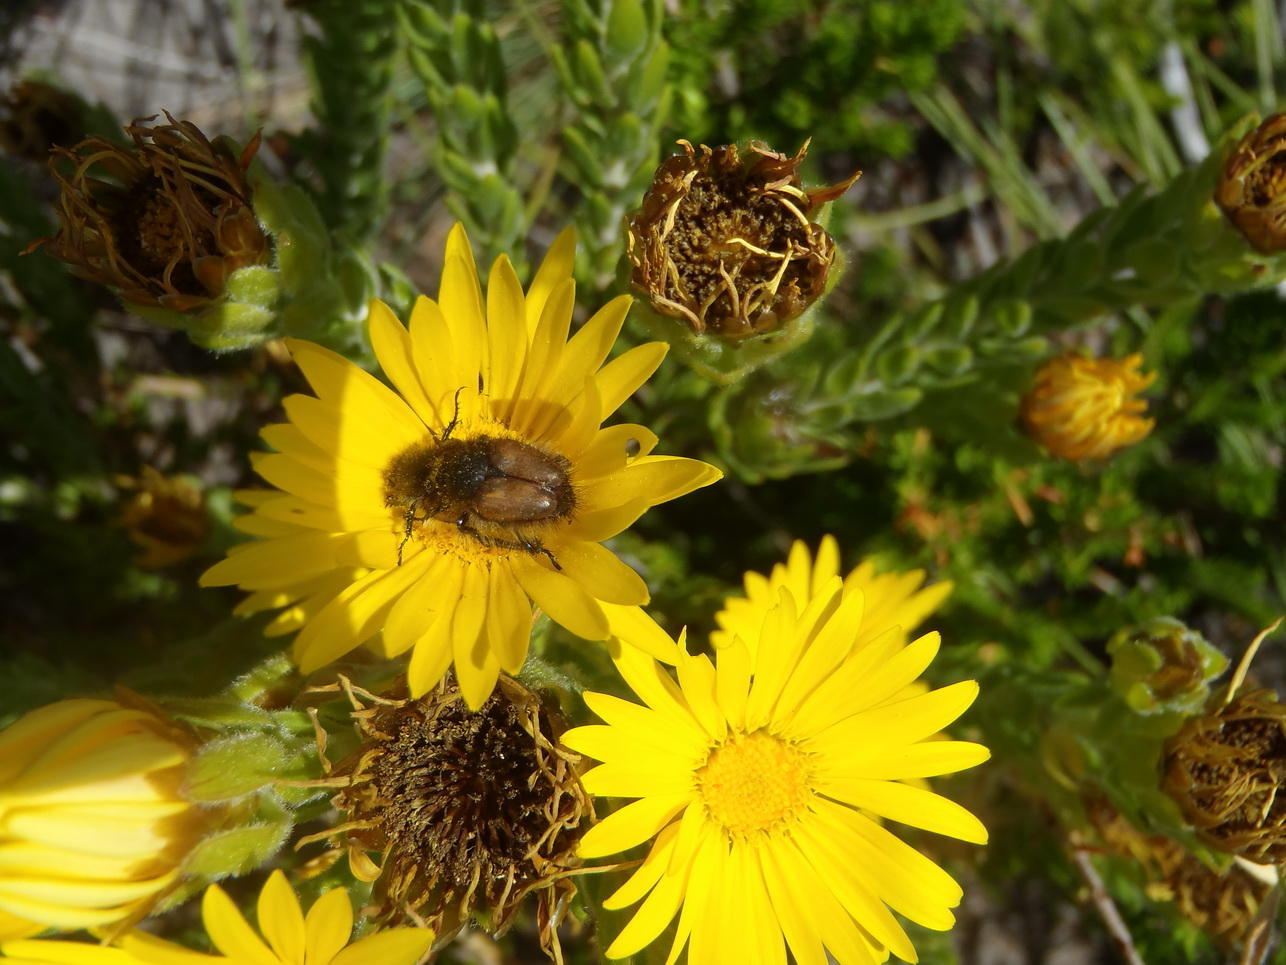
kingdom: Plantae
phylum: Tracheophyta
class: Magnoliopsida
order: Asterales
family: Asteraceae
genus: Oedera
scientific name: Oedera calycina
